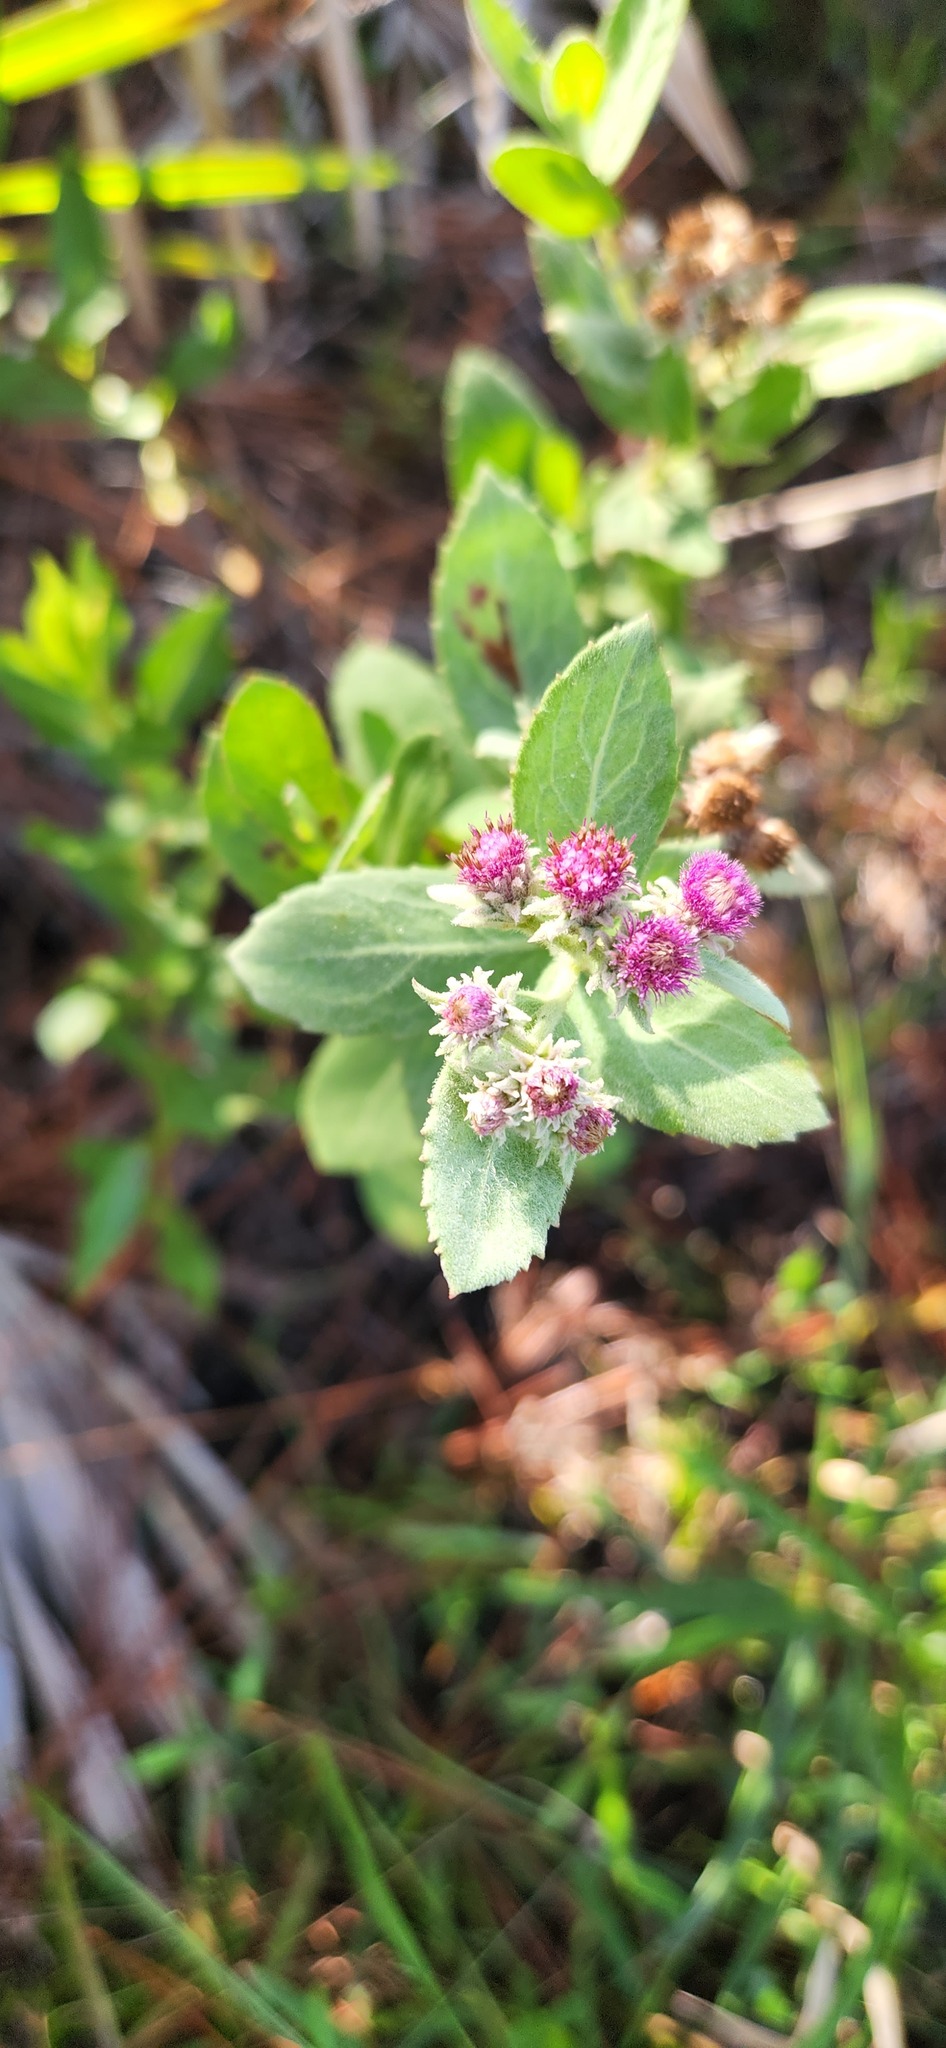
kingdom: Plantae
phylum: Tracheophyta
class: Magnoliopsida
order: Asterales
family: Asteraceae
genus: Pluchea
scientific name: Pluchea baccharis
